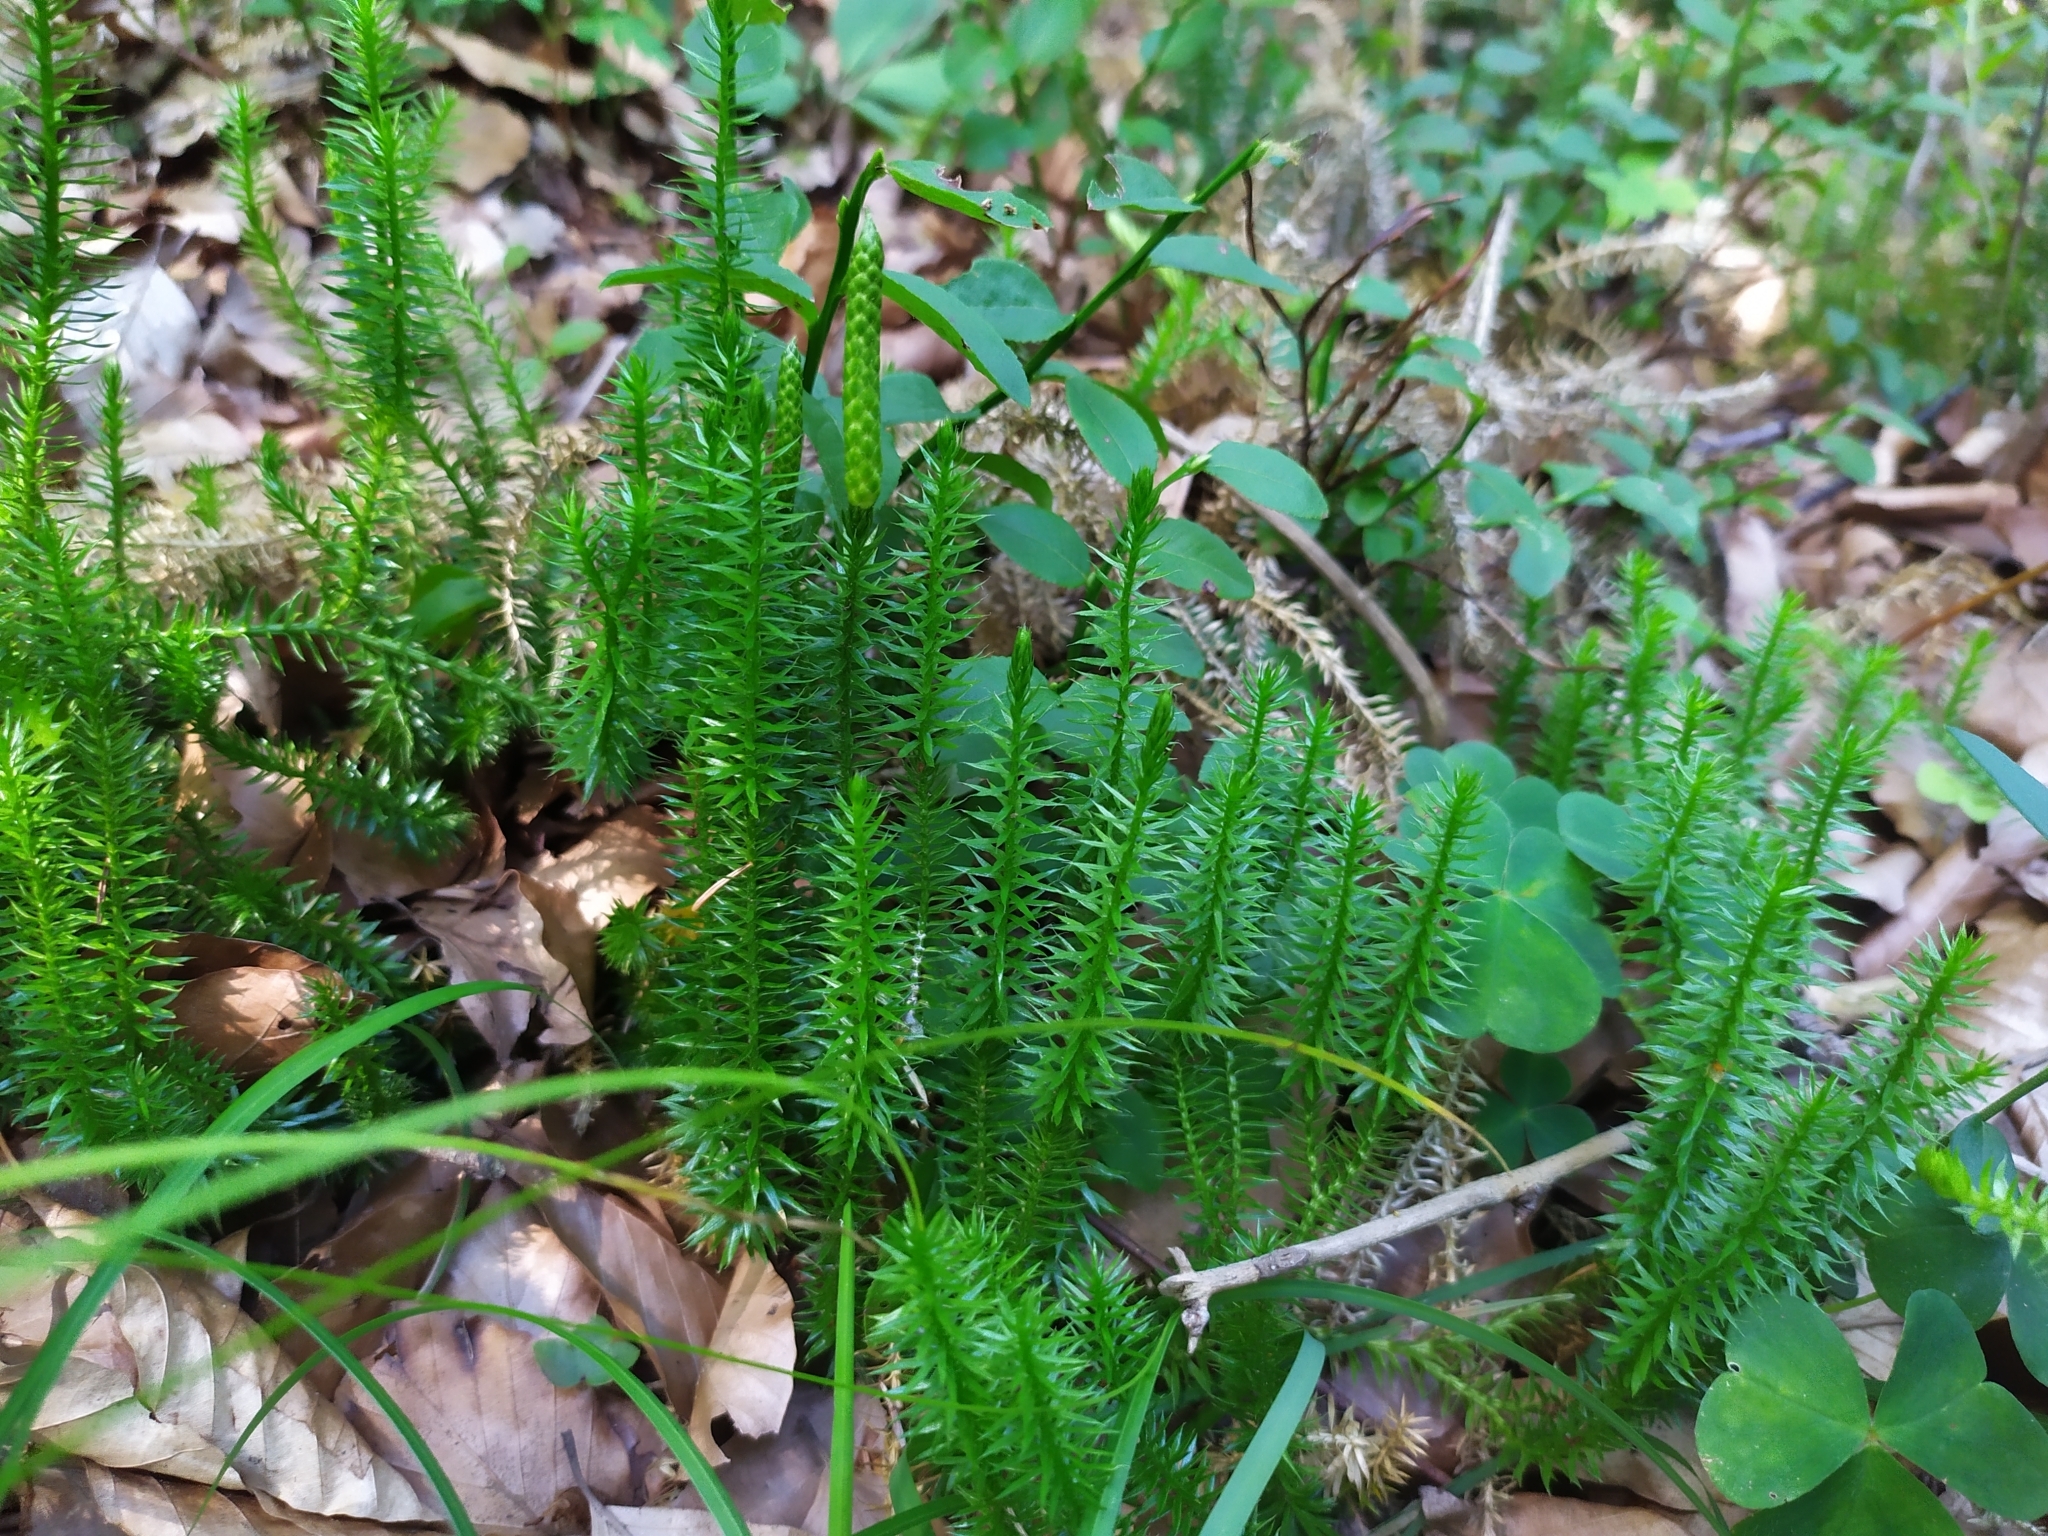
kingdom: Plantae
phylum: Tracheophyta
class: Lycopodiopsida
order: Lycopodiales
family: Lycopodiaceae
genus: Spinulum
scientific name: Spinulum annotinum
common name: Interrupted club-moss
